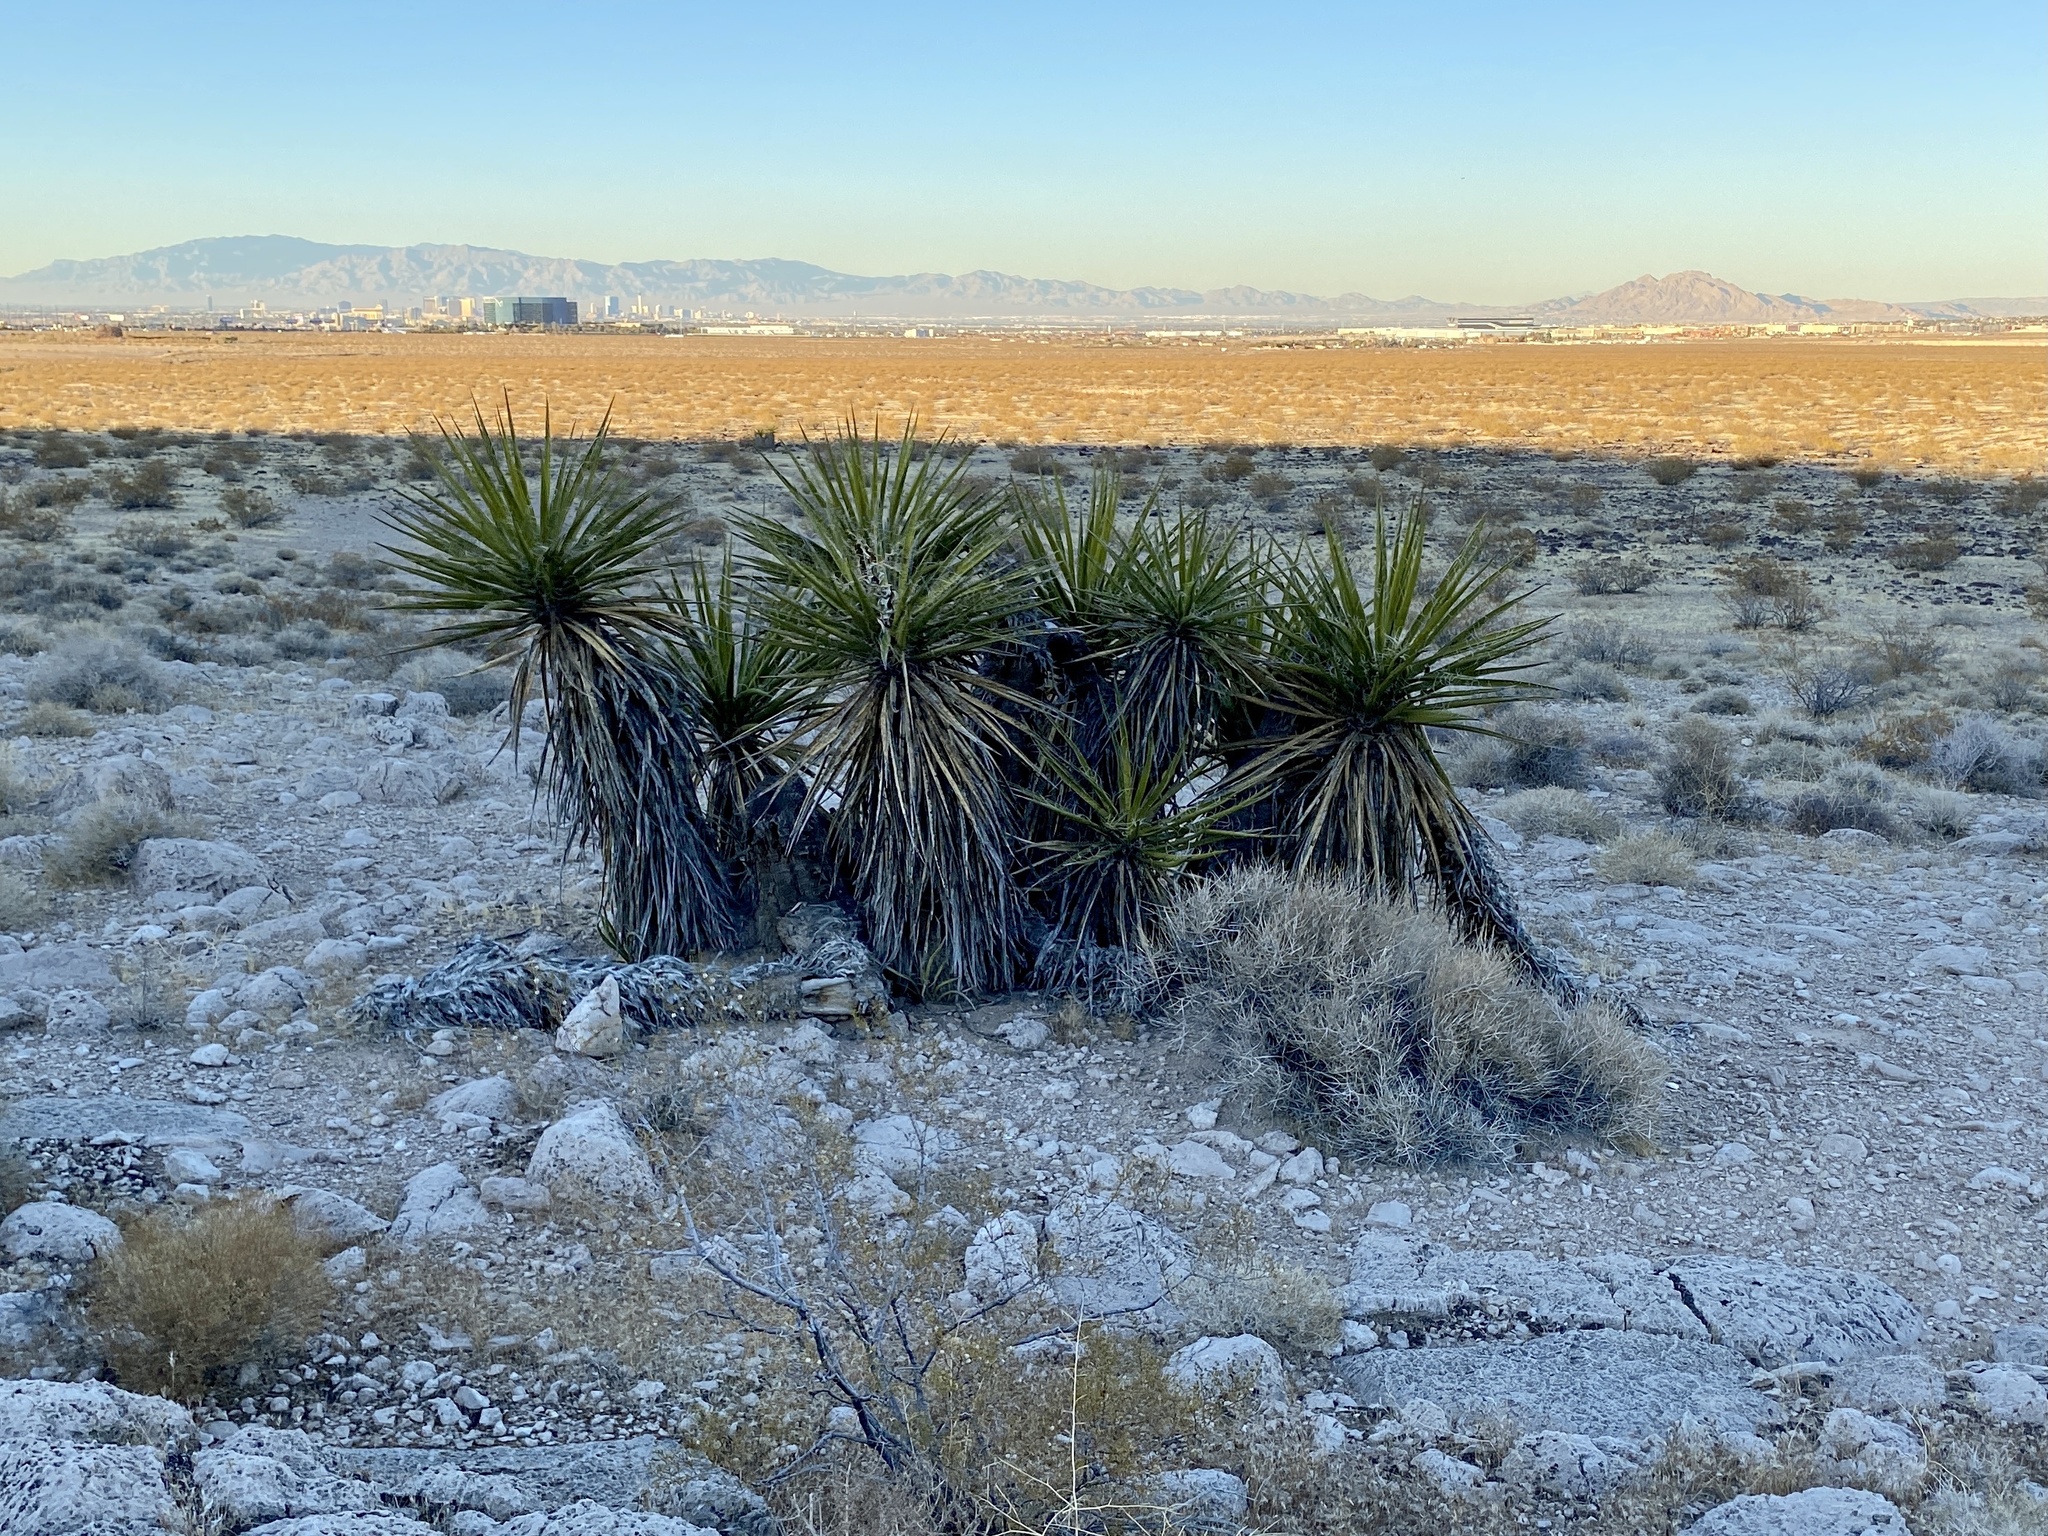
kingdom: Plantae
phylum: Tracheophyta
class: Liliopsida
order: Asparagales
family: Asparagaceae
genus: Yucca
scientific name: Yucca schidigera
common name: Mojave yucca
